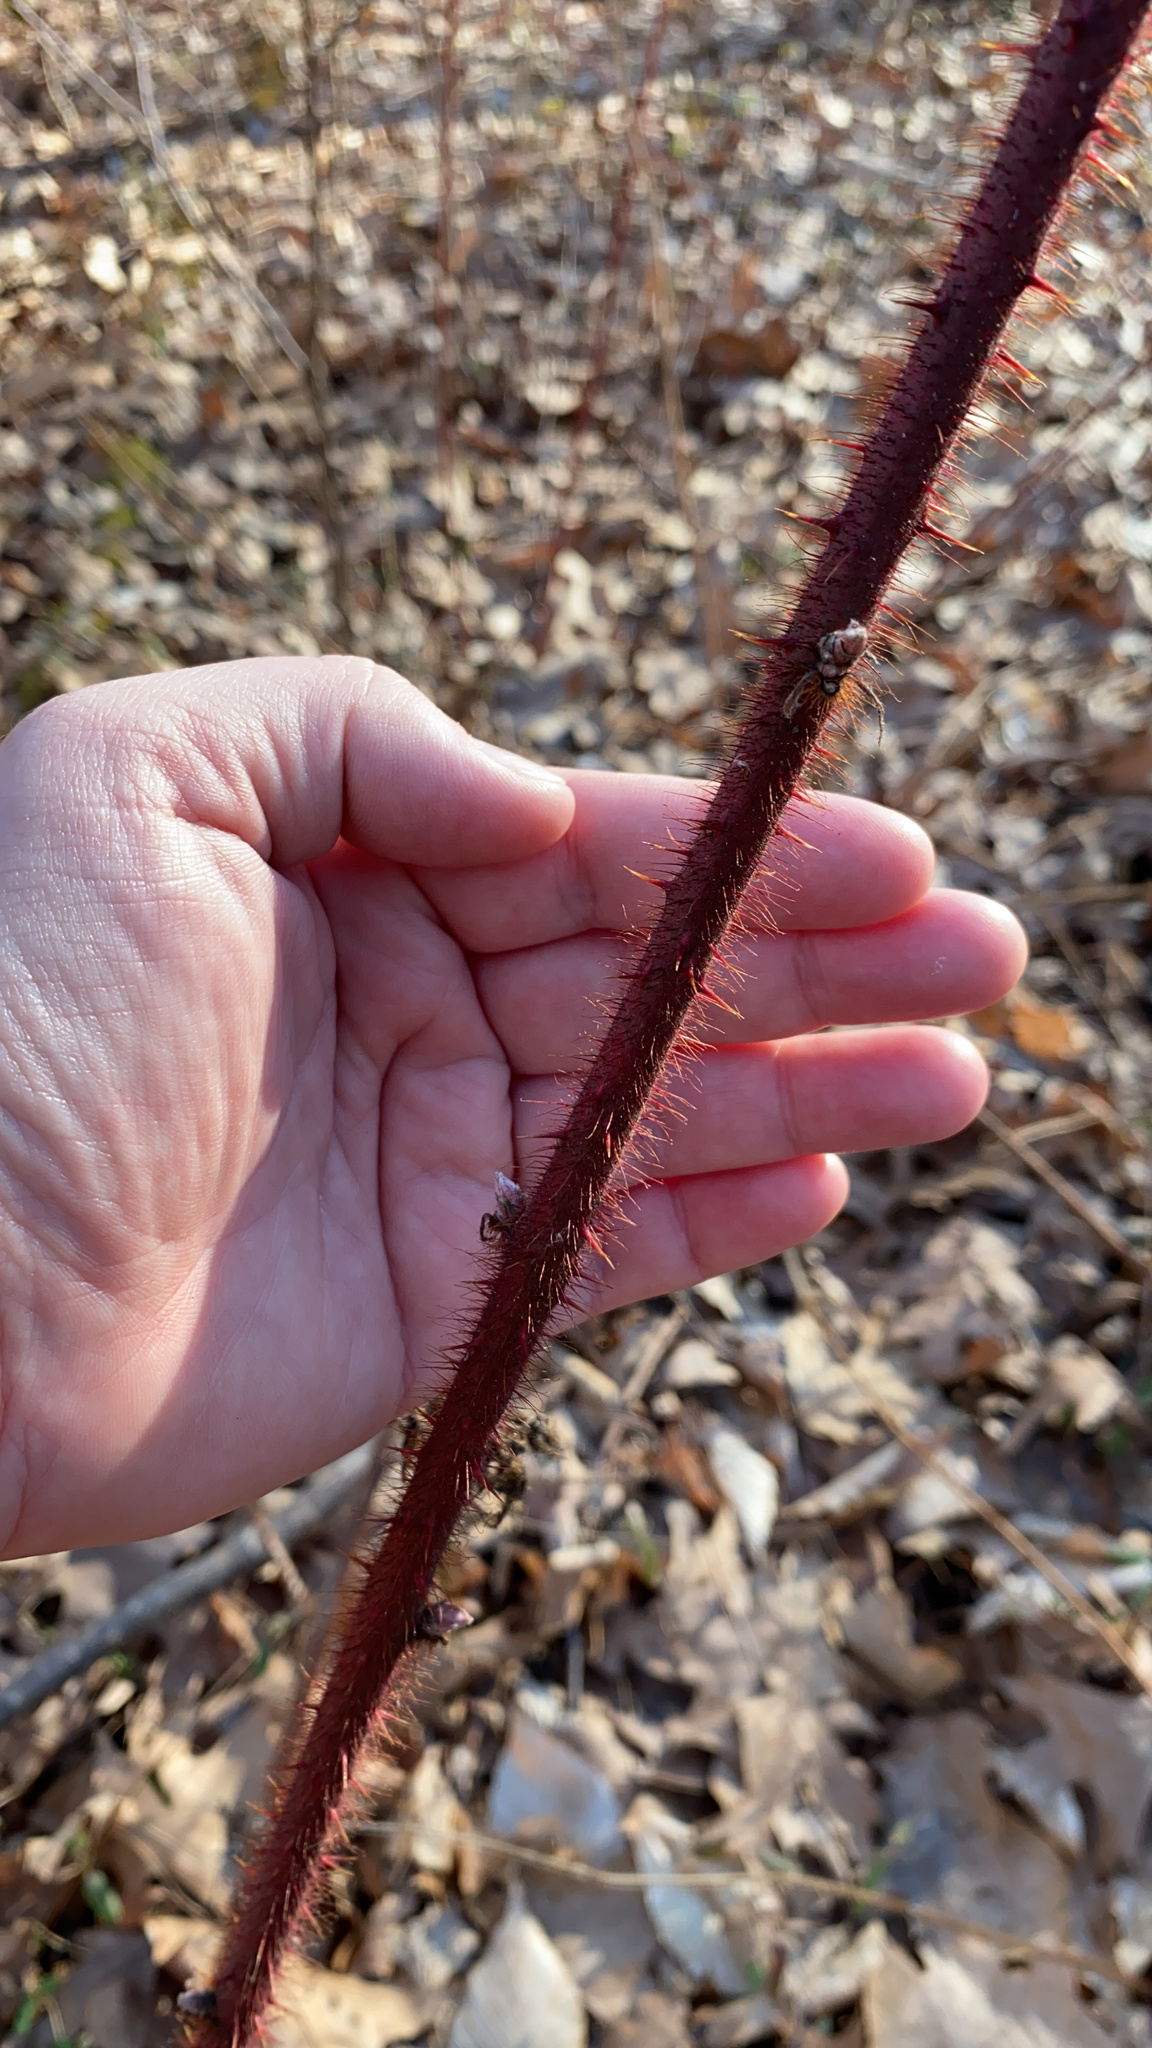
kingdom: Plantae
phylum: Tracheophyta
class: Magnoliopsida
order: Rosales
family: Rosaceae
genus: Rubus
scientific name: Rubus phoenicolasius
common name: Japanese wineberry
